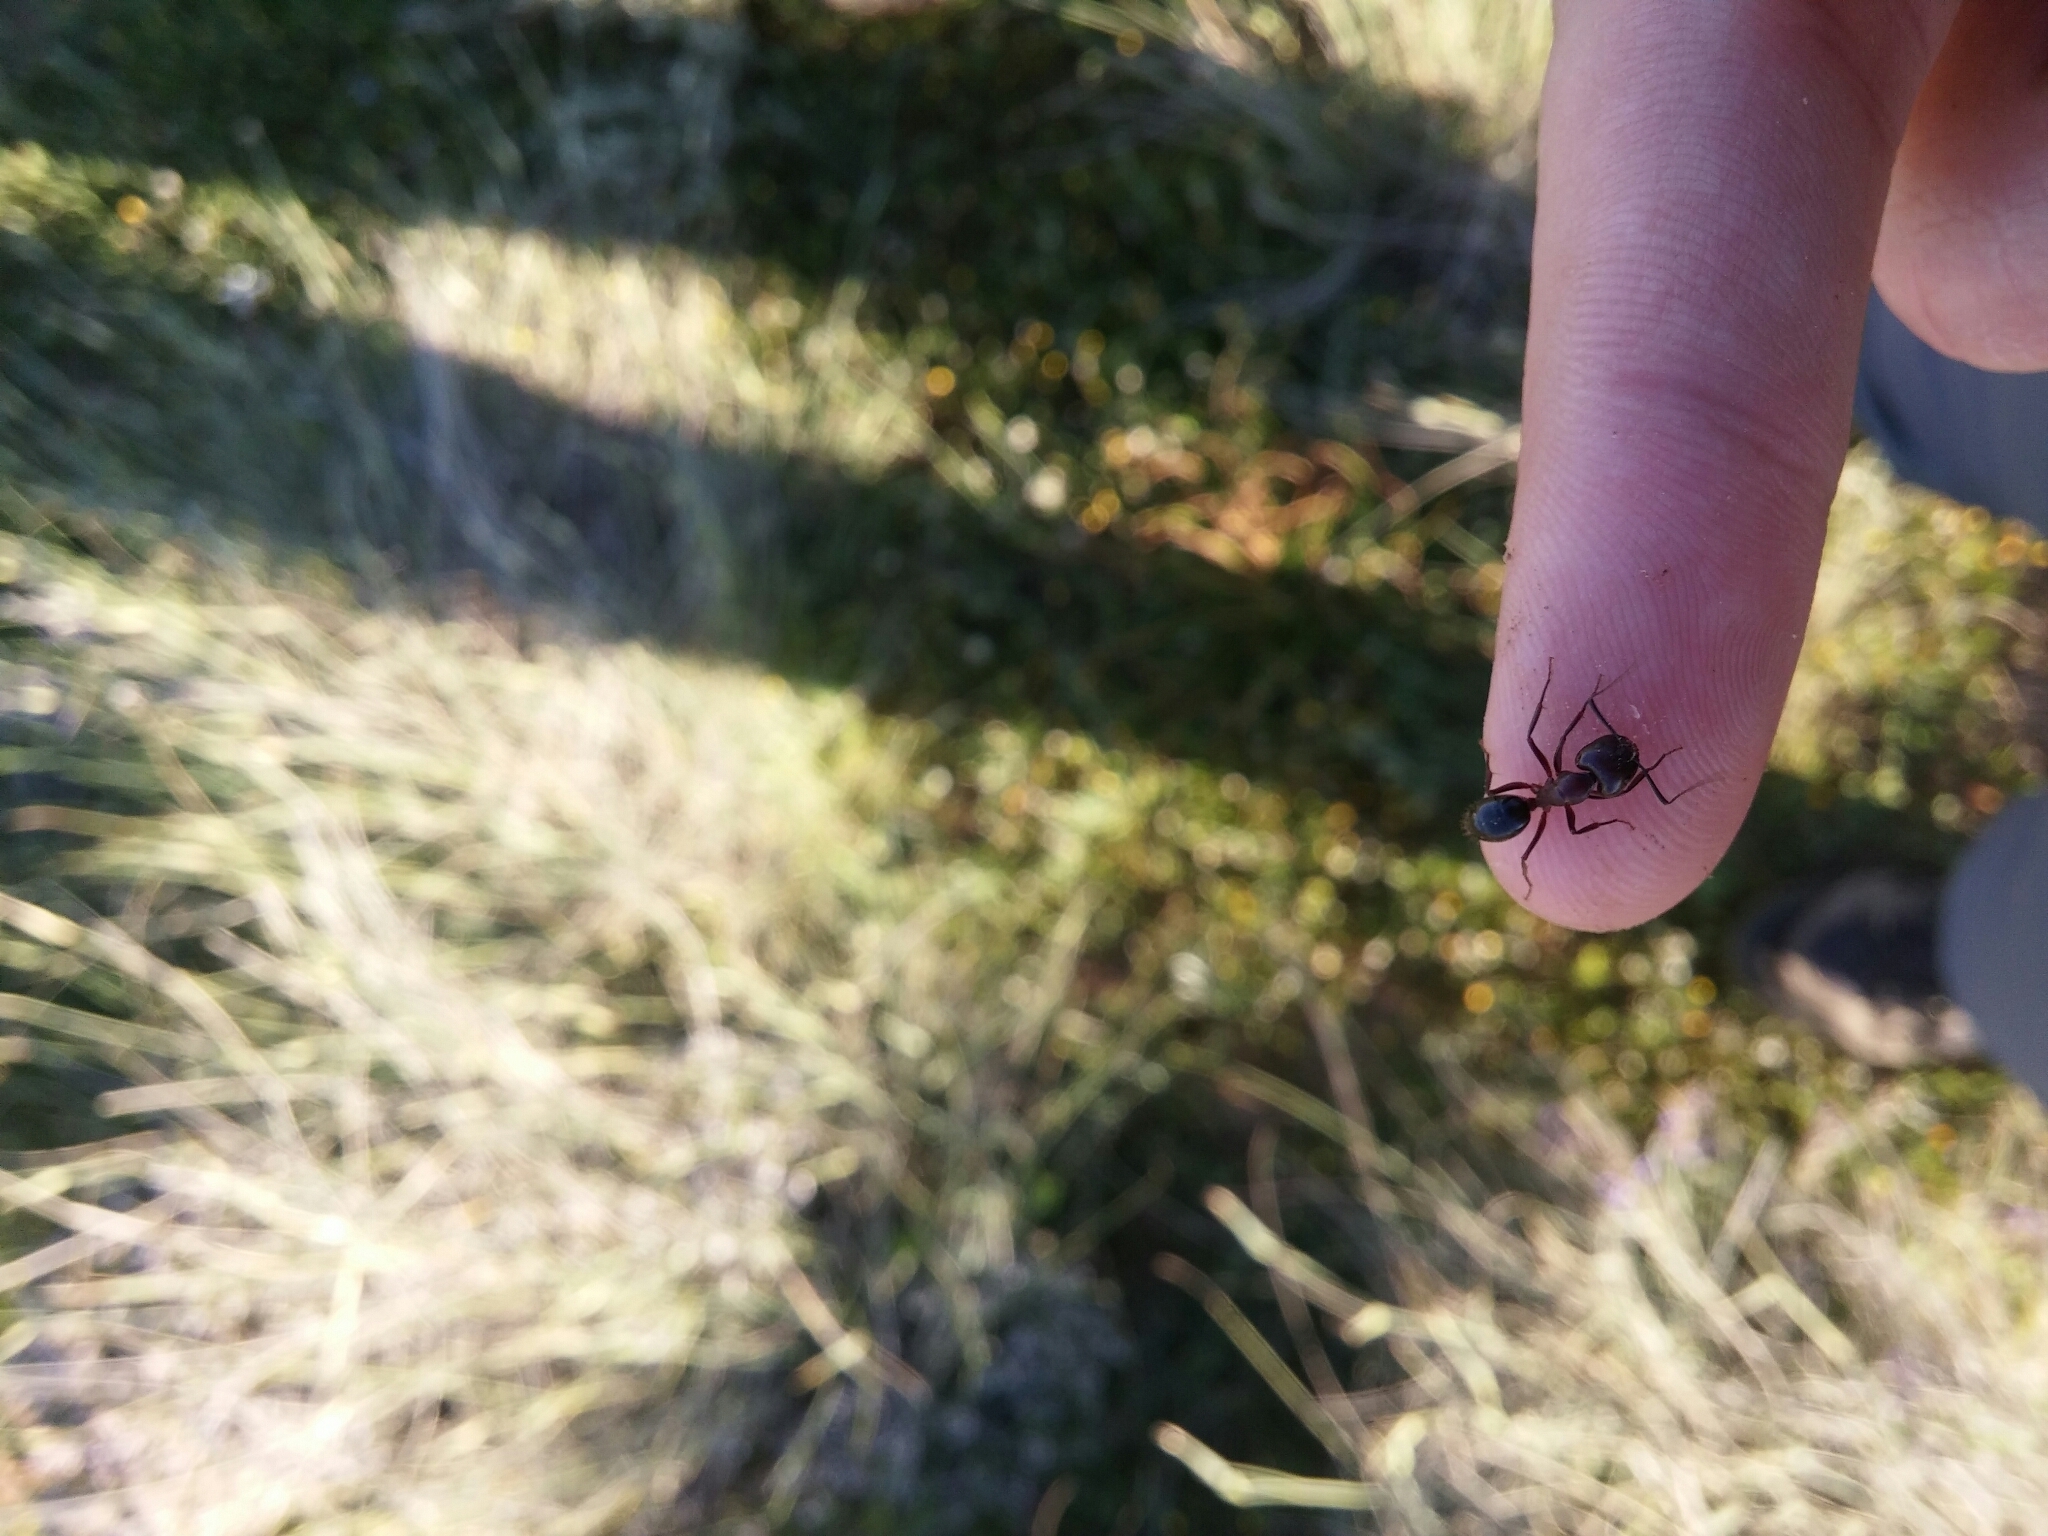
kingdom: Animalia
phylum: Arthropoda
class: Insecta
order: Hymenoptera
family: Formicidae
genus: Camponotus
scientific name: Camponotus sylvaticus
